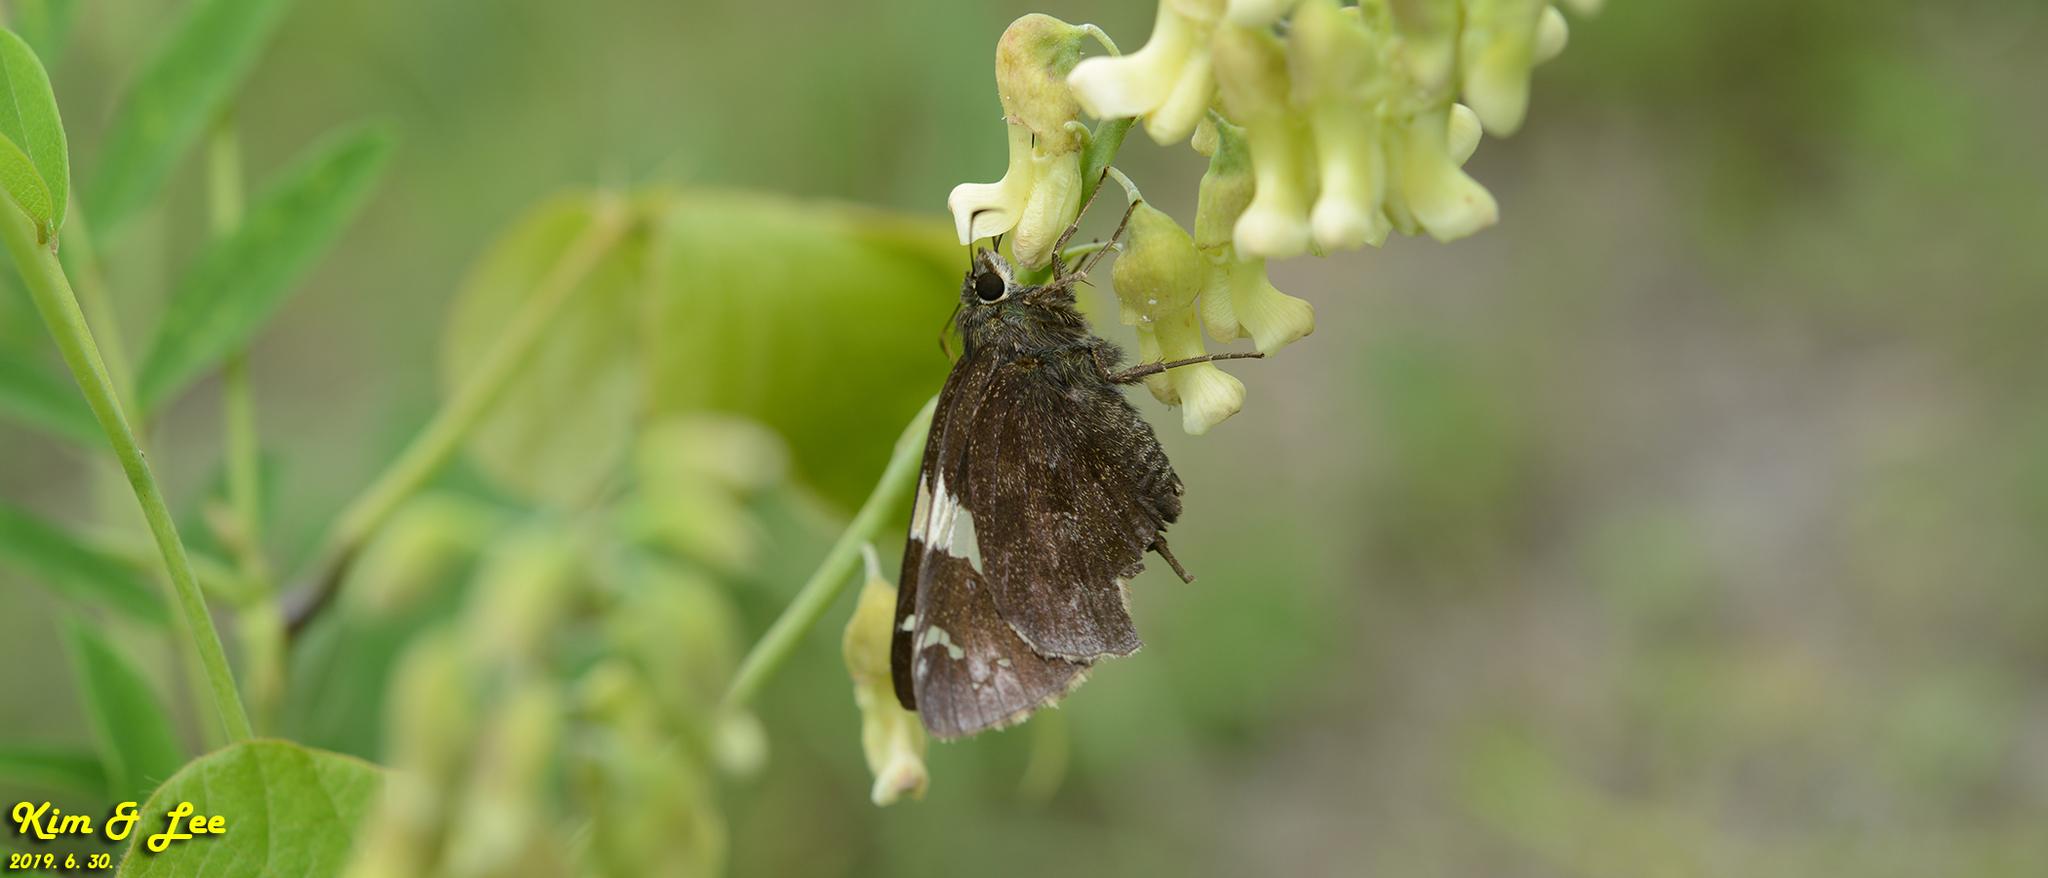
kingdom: Animalia
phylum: Arthropoda
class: Insecta
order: Lepidoptera
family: Hesperiidae
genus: Lobocla
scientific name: Lobocla bifasciatus
